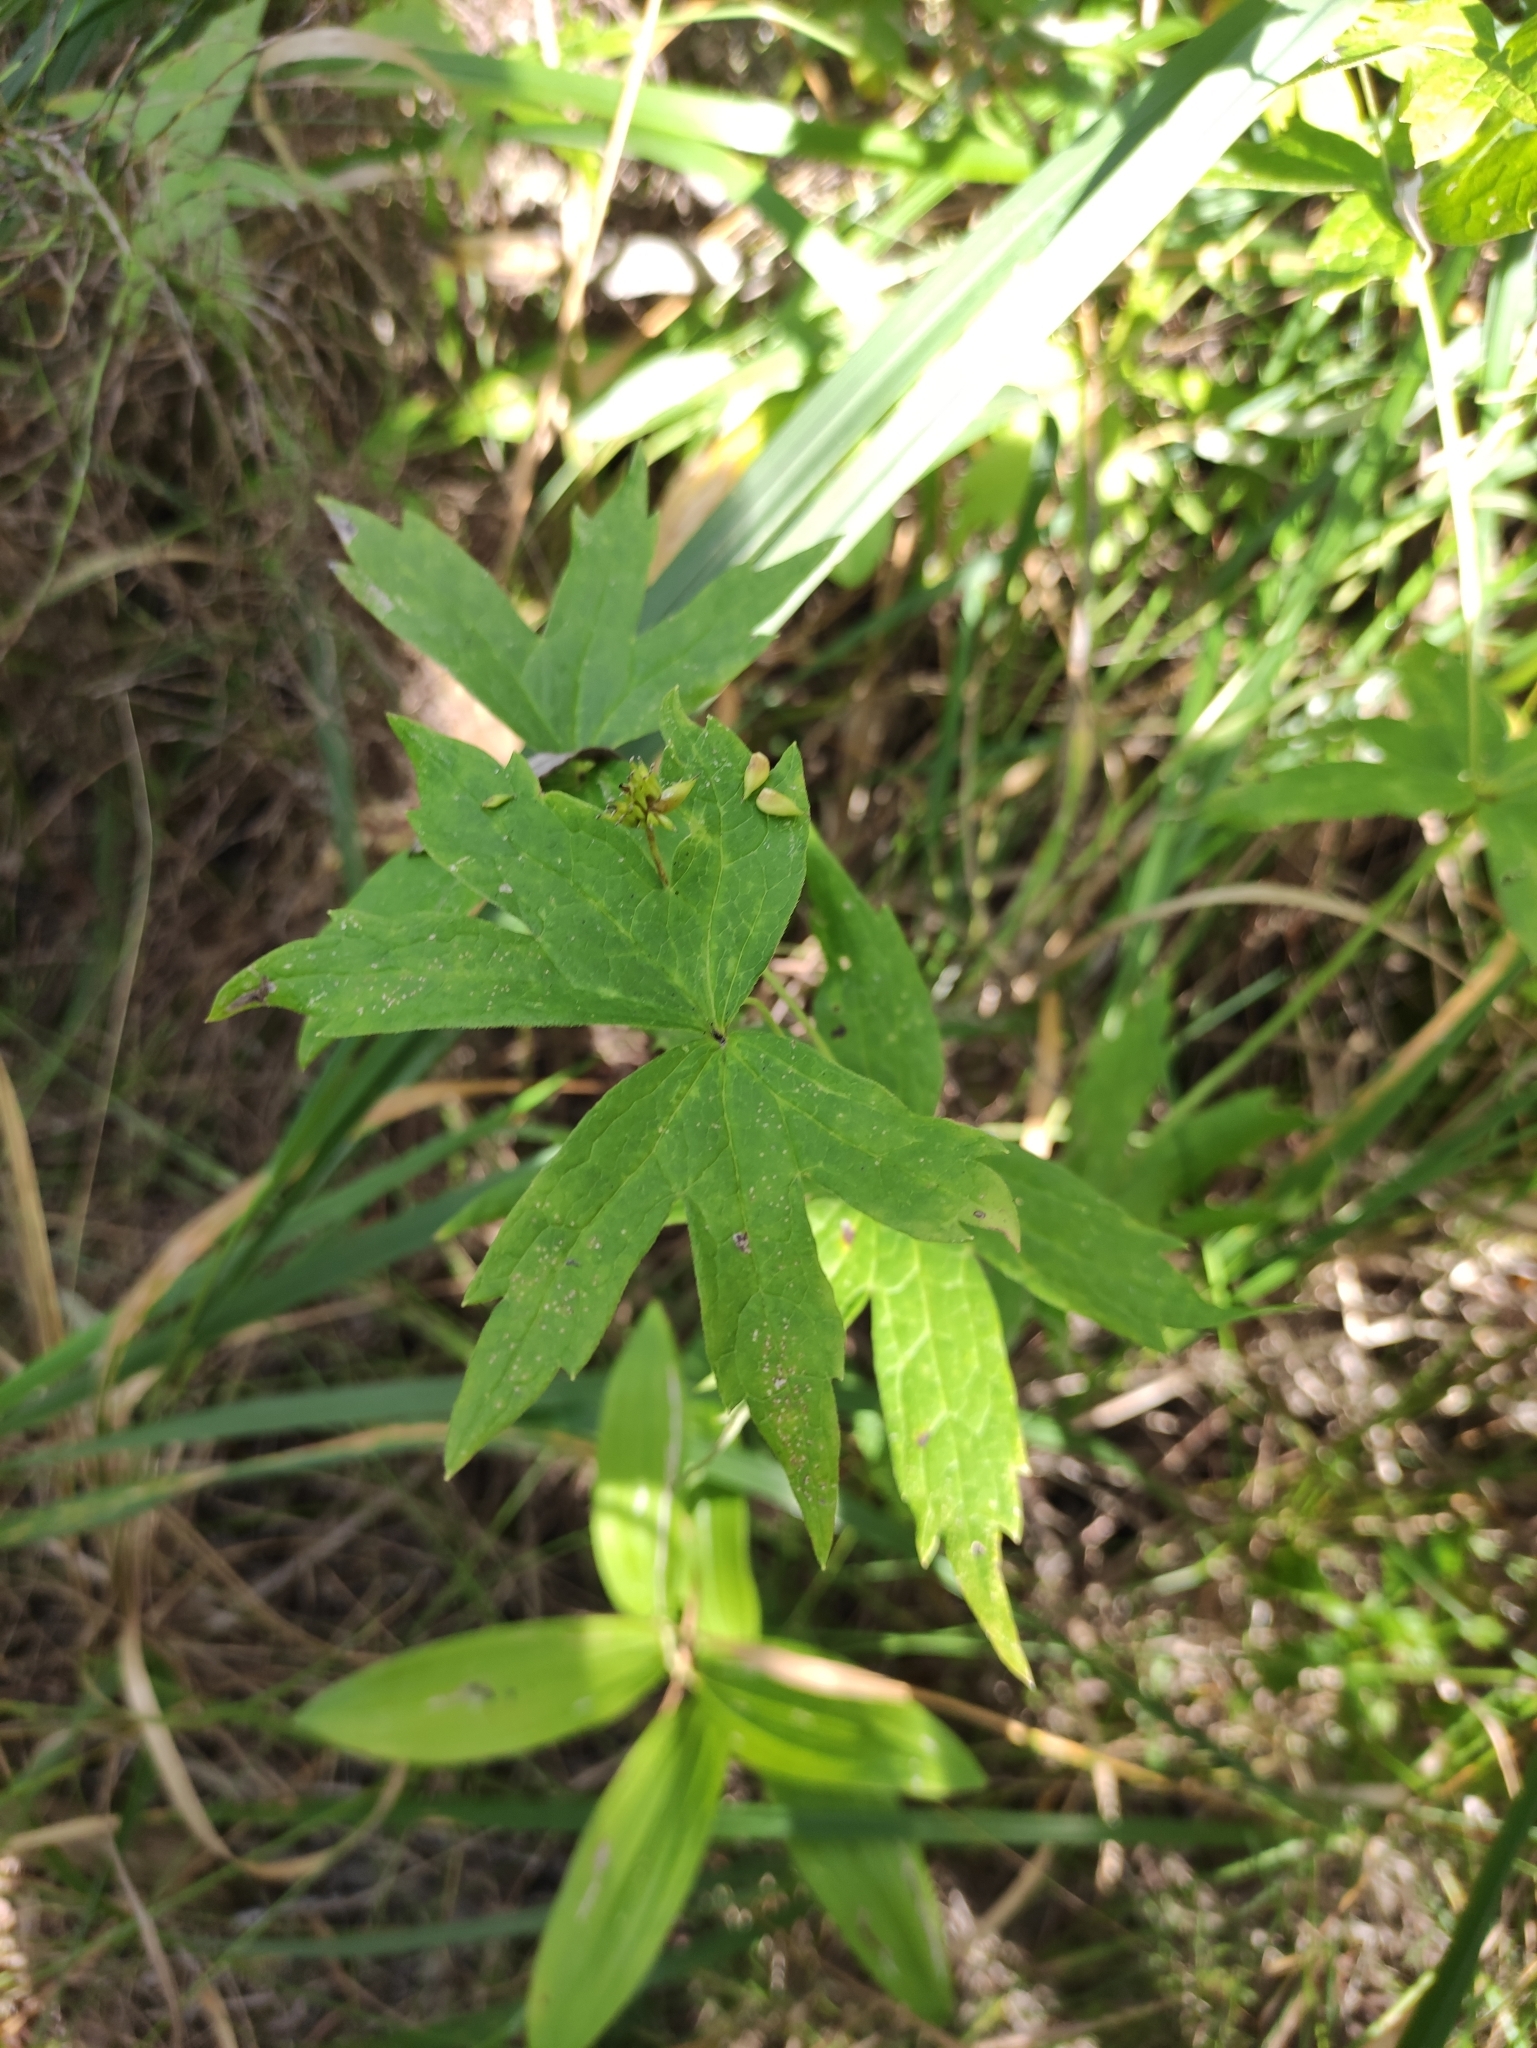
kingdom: Plantae
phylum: Tracheophyta
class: Magnoliopsida
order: Ranunculales
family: Ranunculaceae
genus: Anemonastrum
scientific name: Anemonastrum dichotomum
